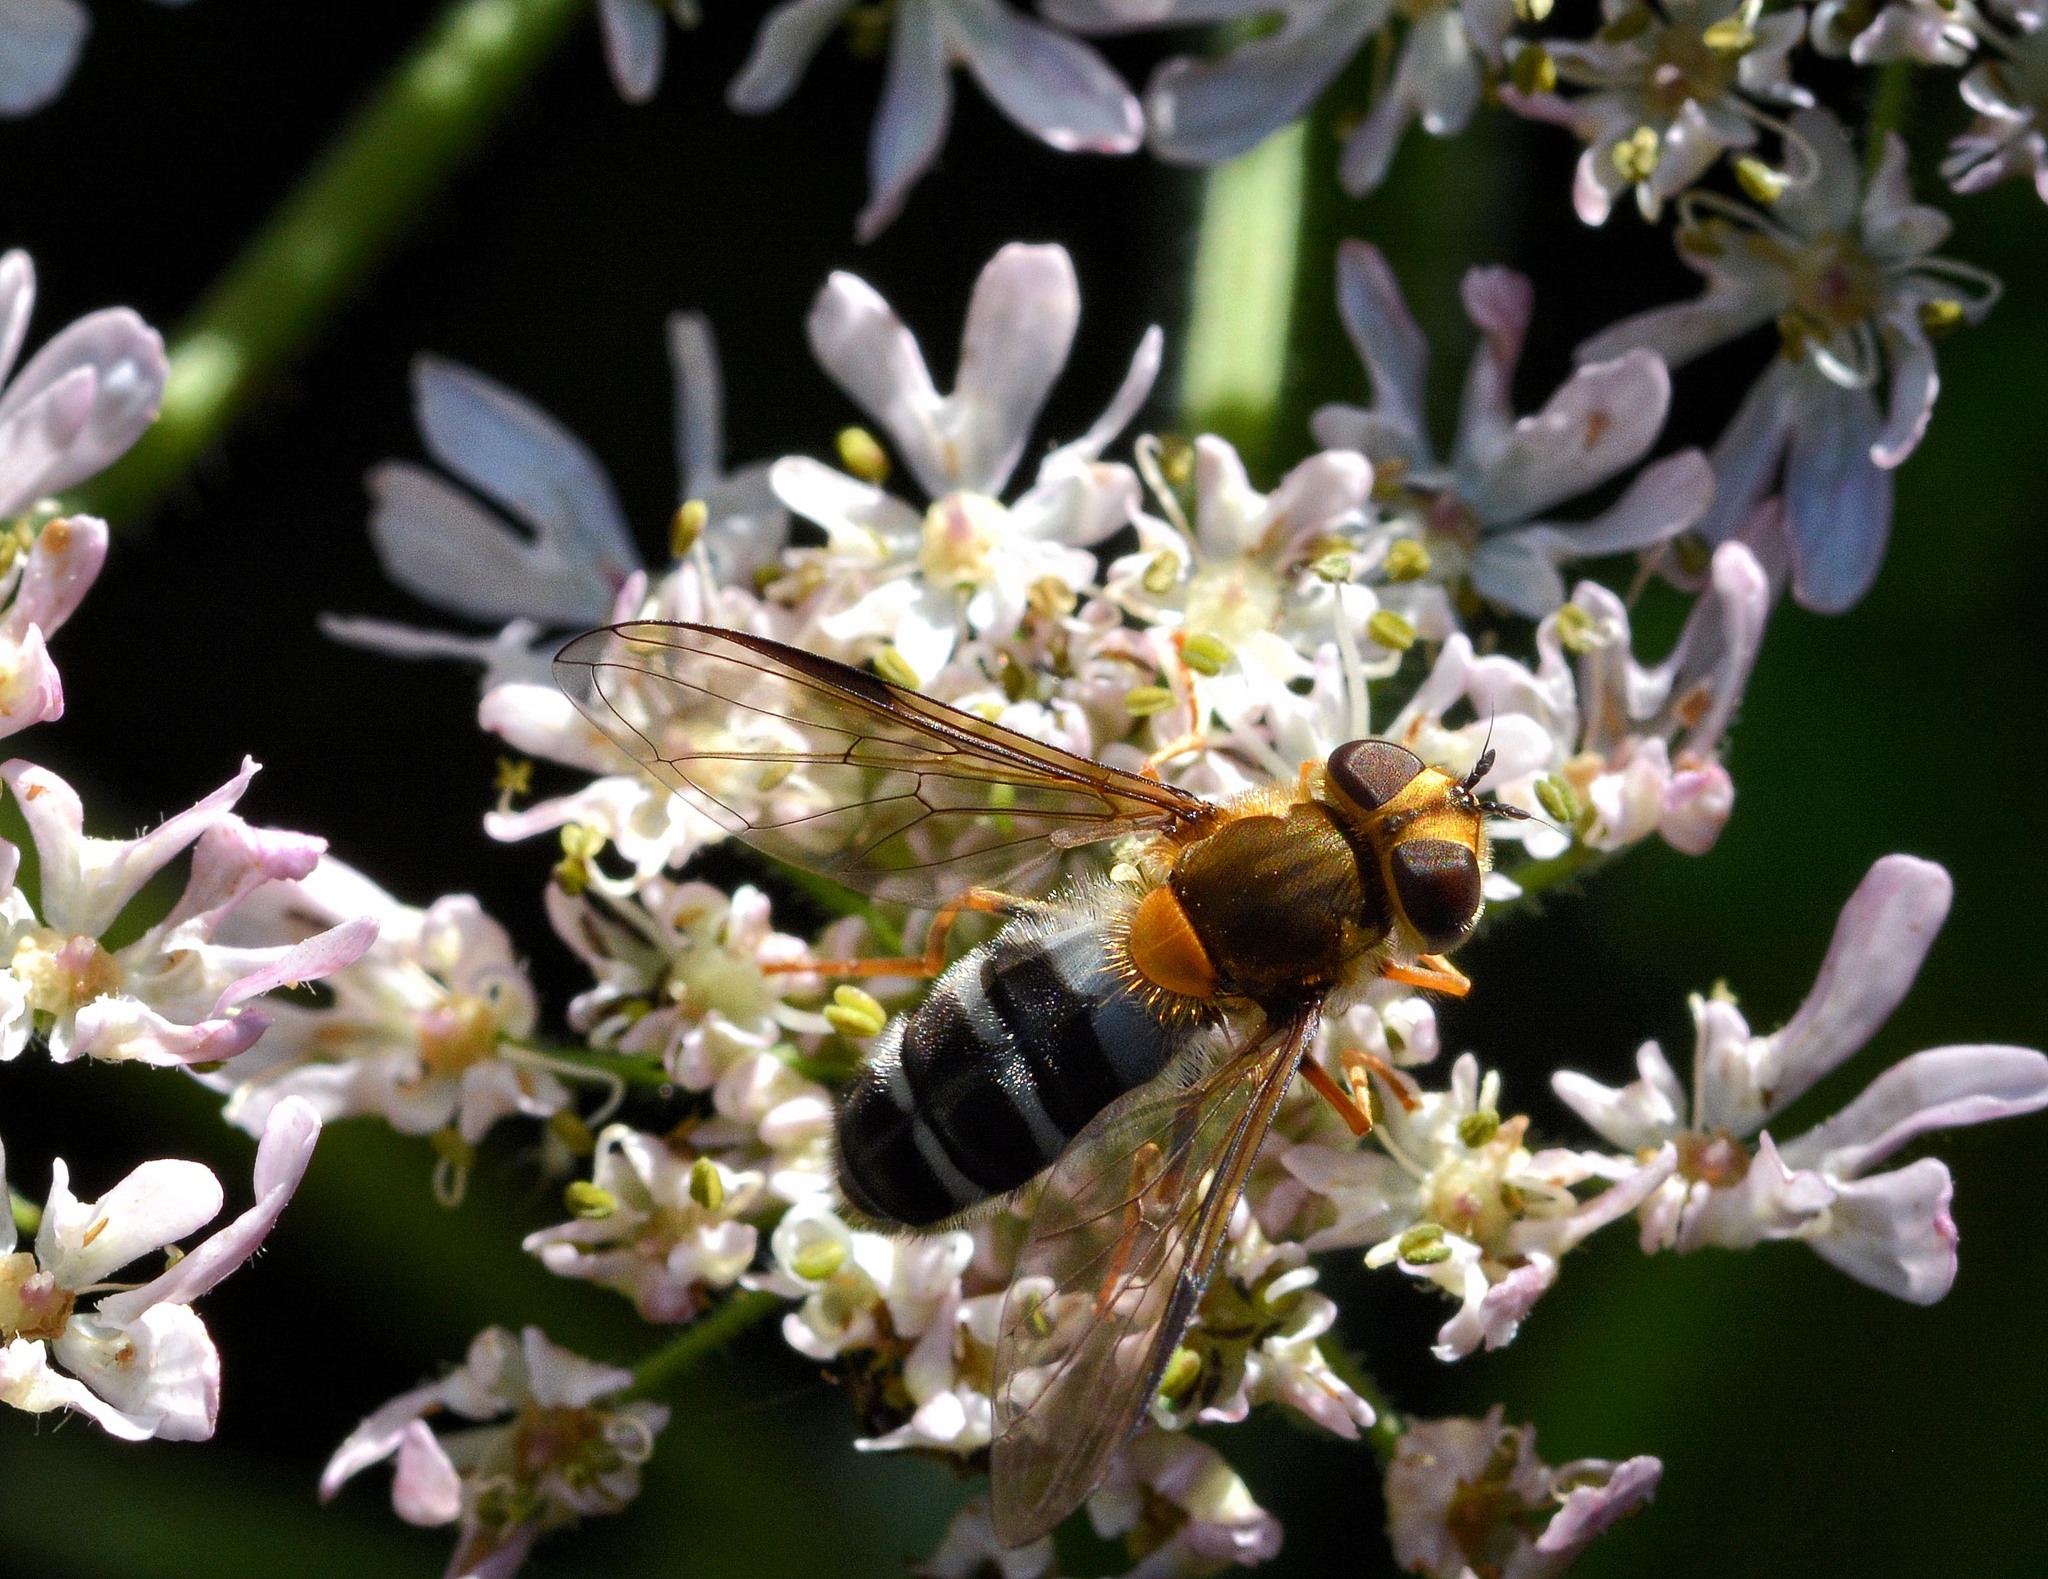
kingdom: Animalia
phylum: Arthropoda
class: Insecta
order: Diptera
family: Syrphidae
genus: Leucozona
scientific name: Leucozona glaucia
